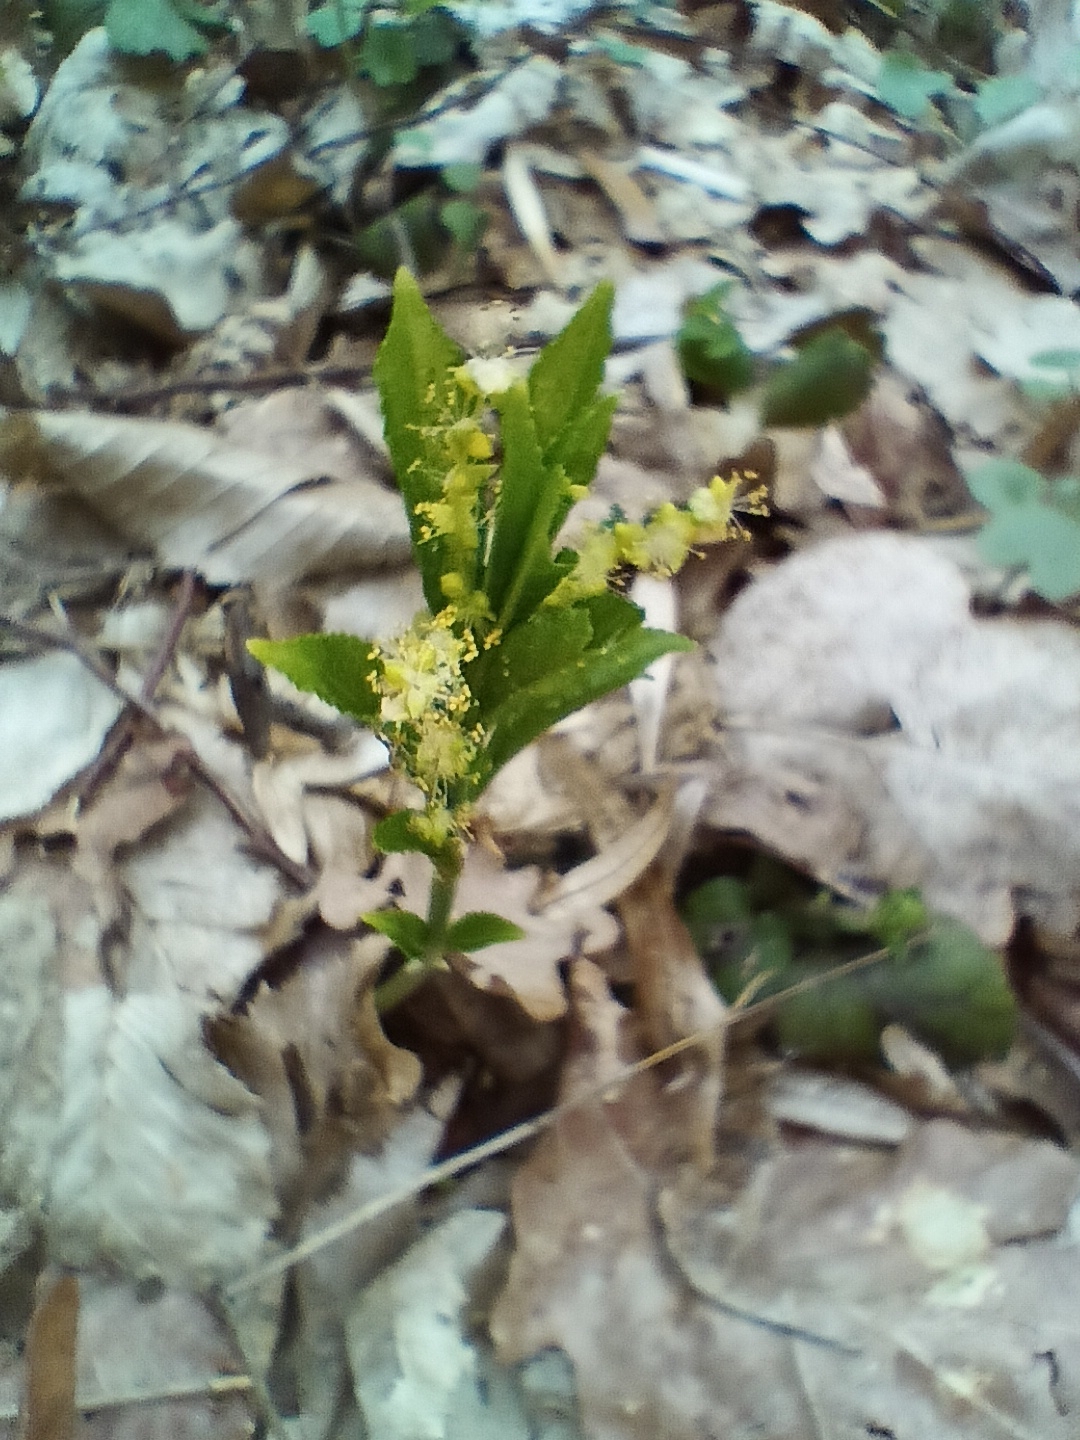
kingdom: Plantae
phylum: Tracheophyta
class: Magnoliopsida
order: Malpighiales
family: Euphorbiaceae
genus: Mercurialis
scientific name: Mercurialis perennis
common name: Dog mercury
